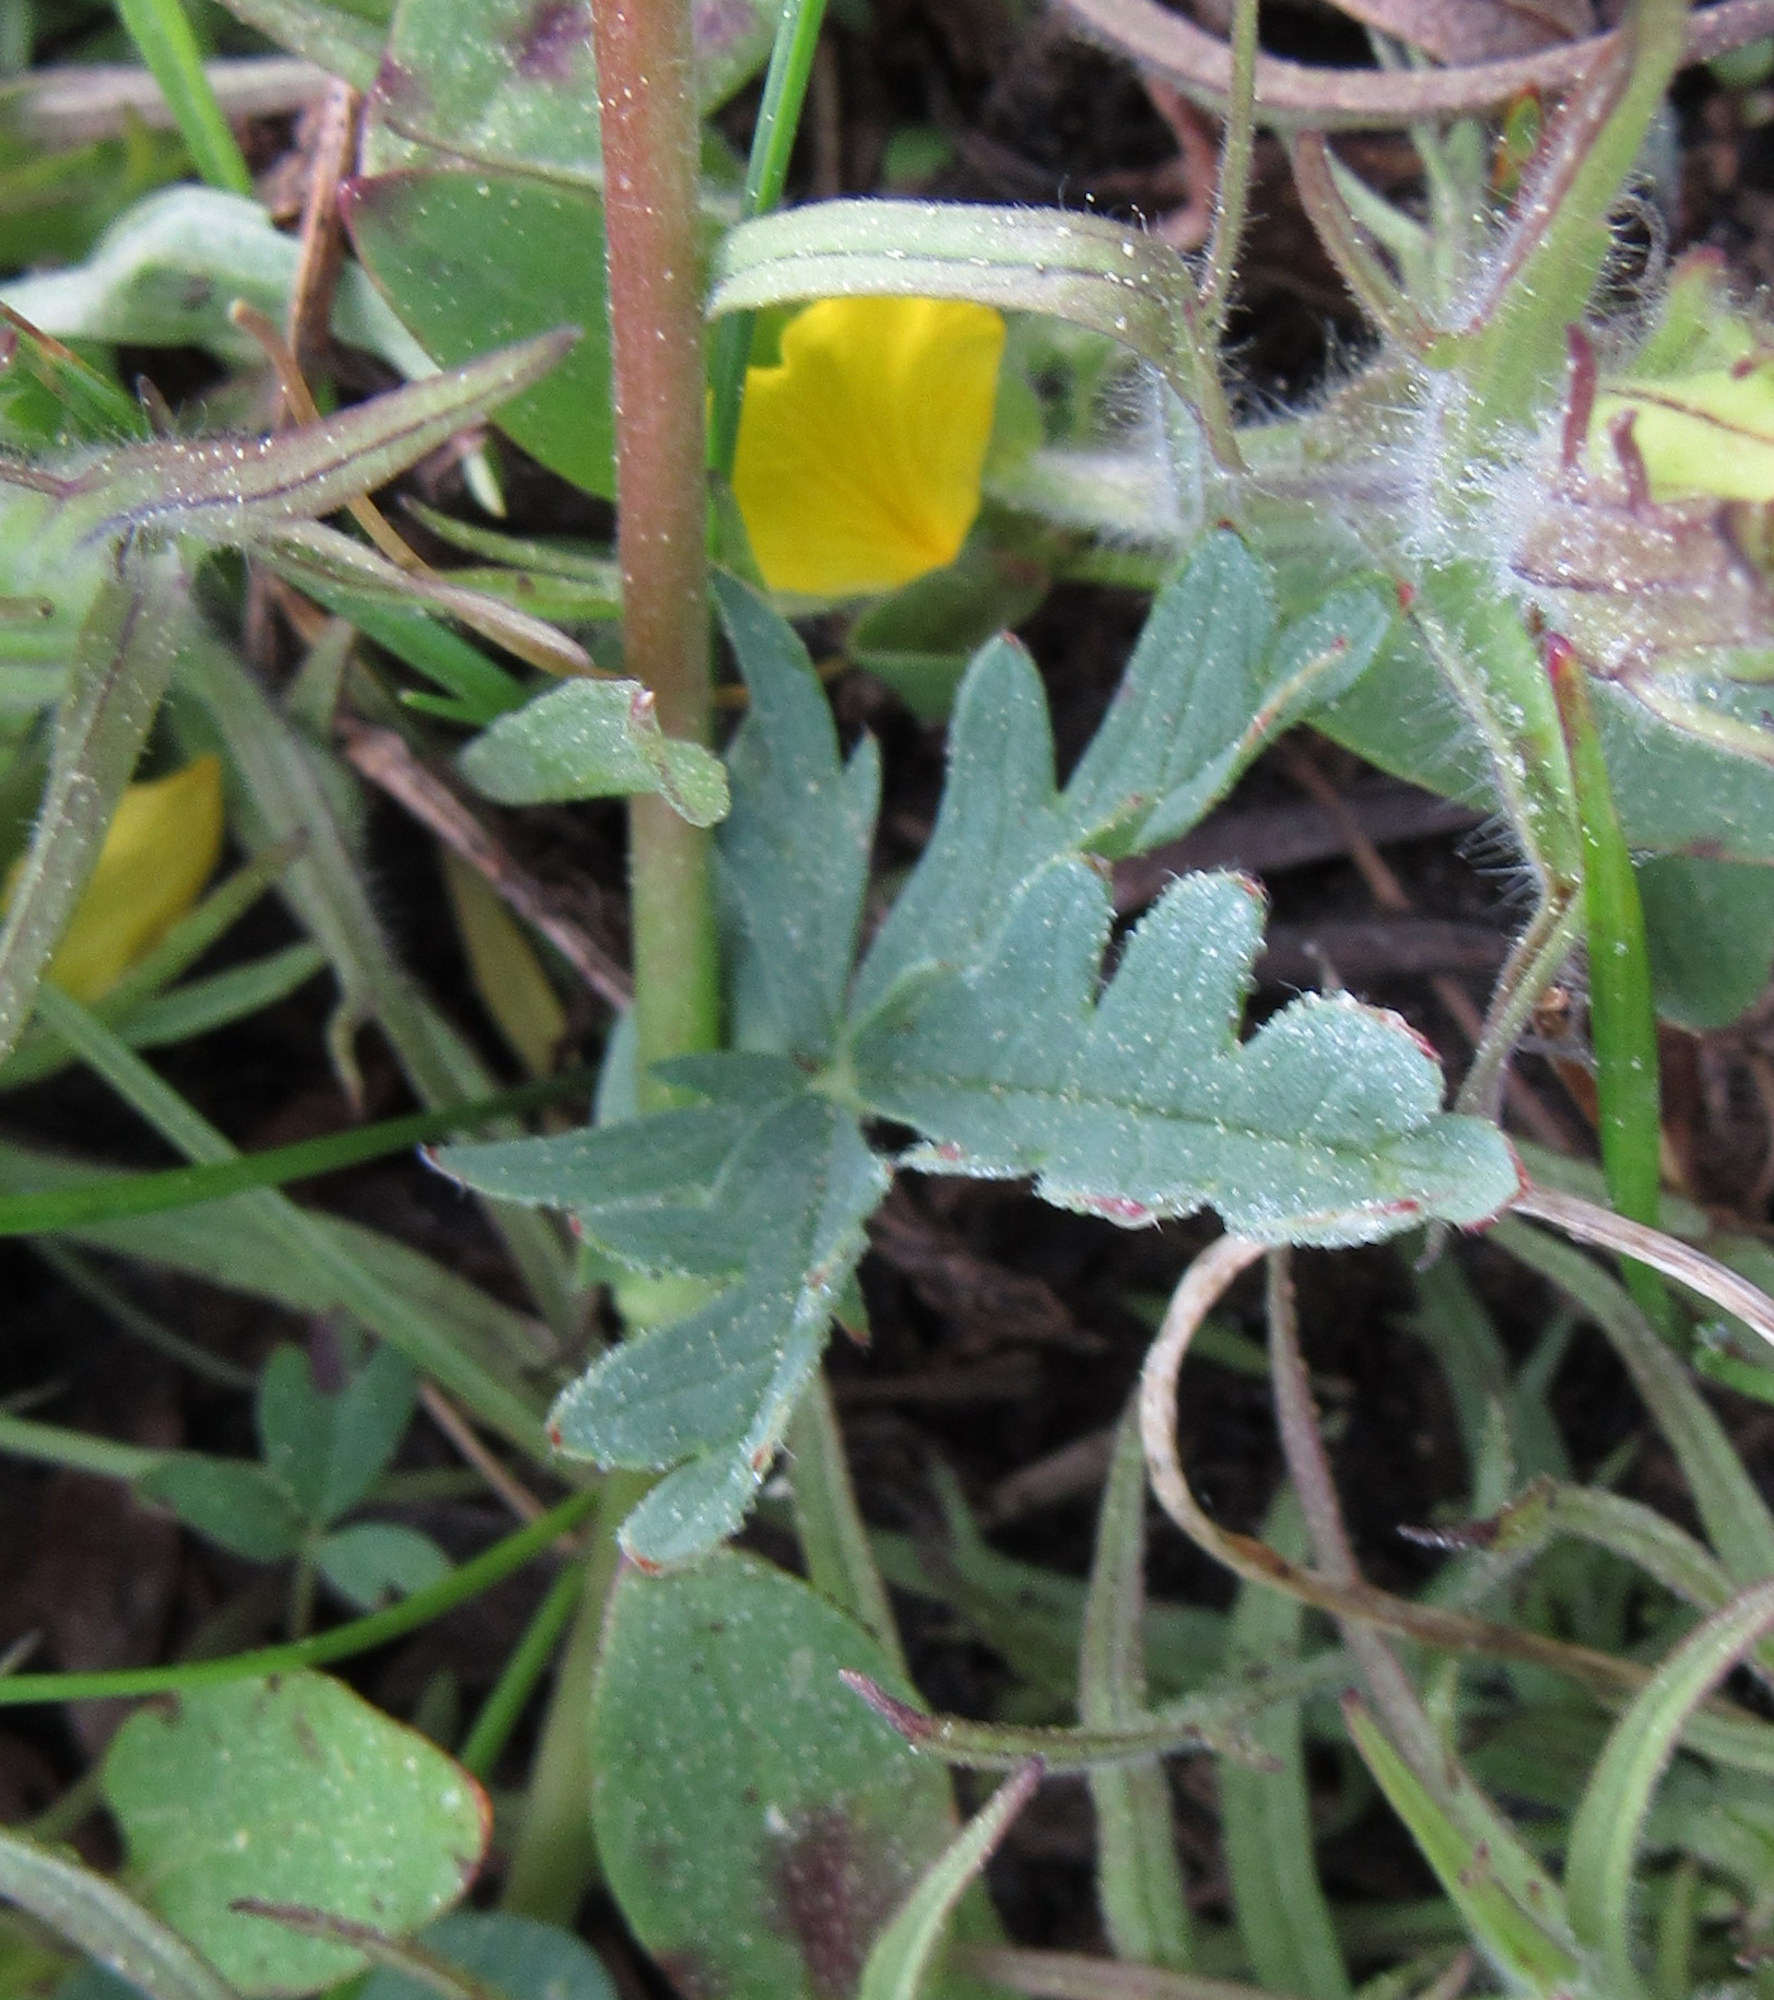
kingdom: Plantae
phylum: Tracheophyta
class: Magnoliopsida
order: Rosales
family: Rosaceae
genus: Potentilla
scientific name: Potentilla glaucophylla
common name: Blue-leaved cinquefoil
